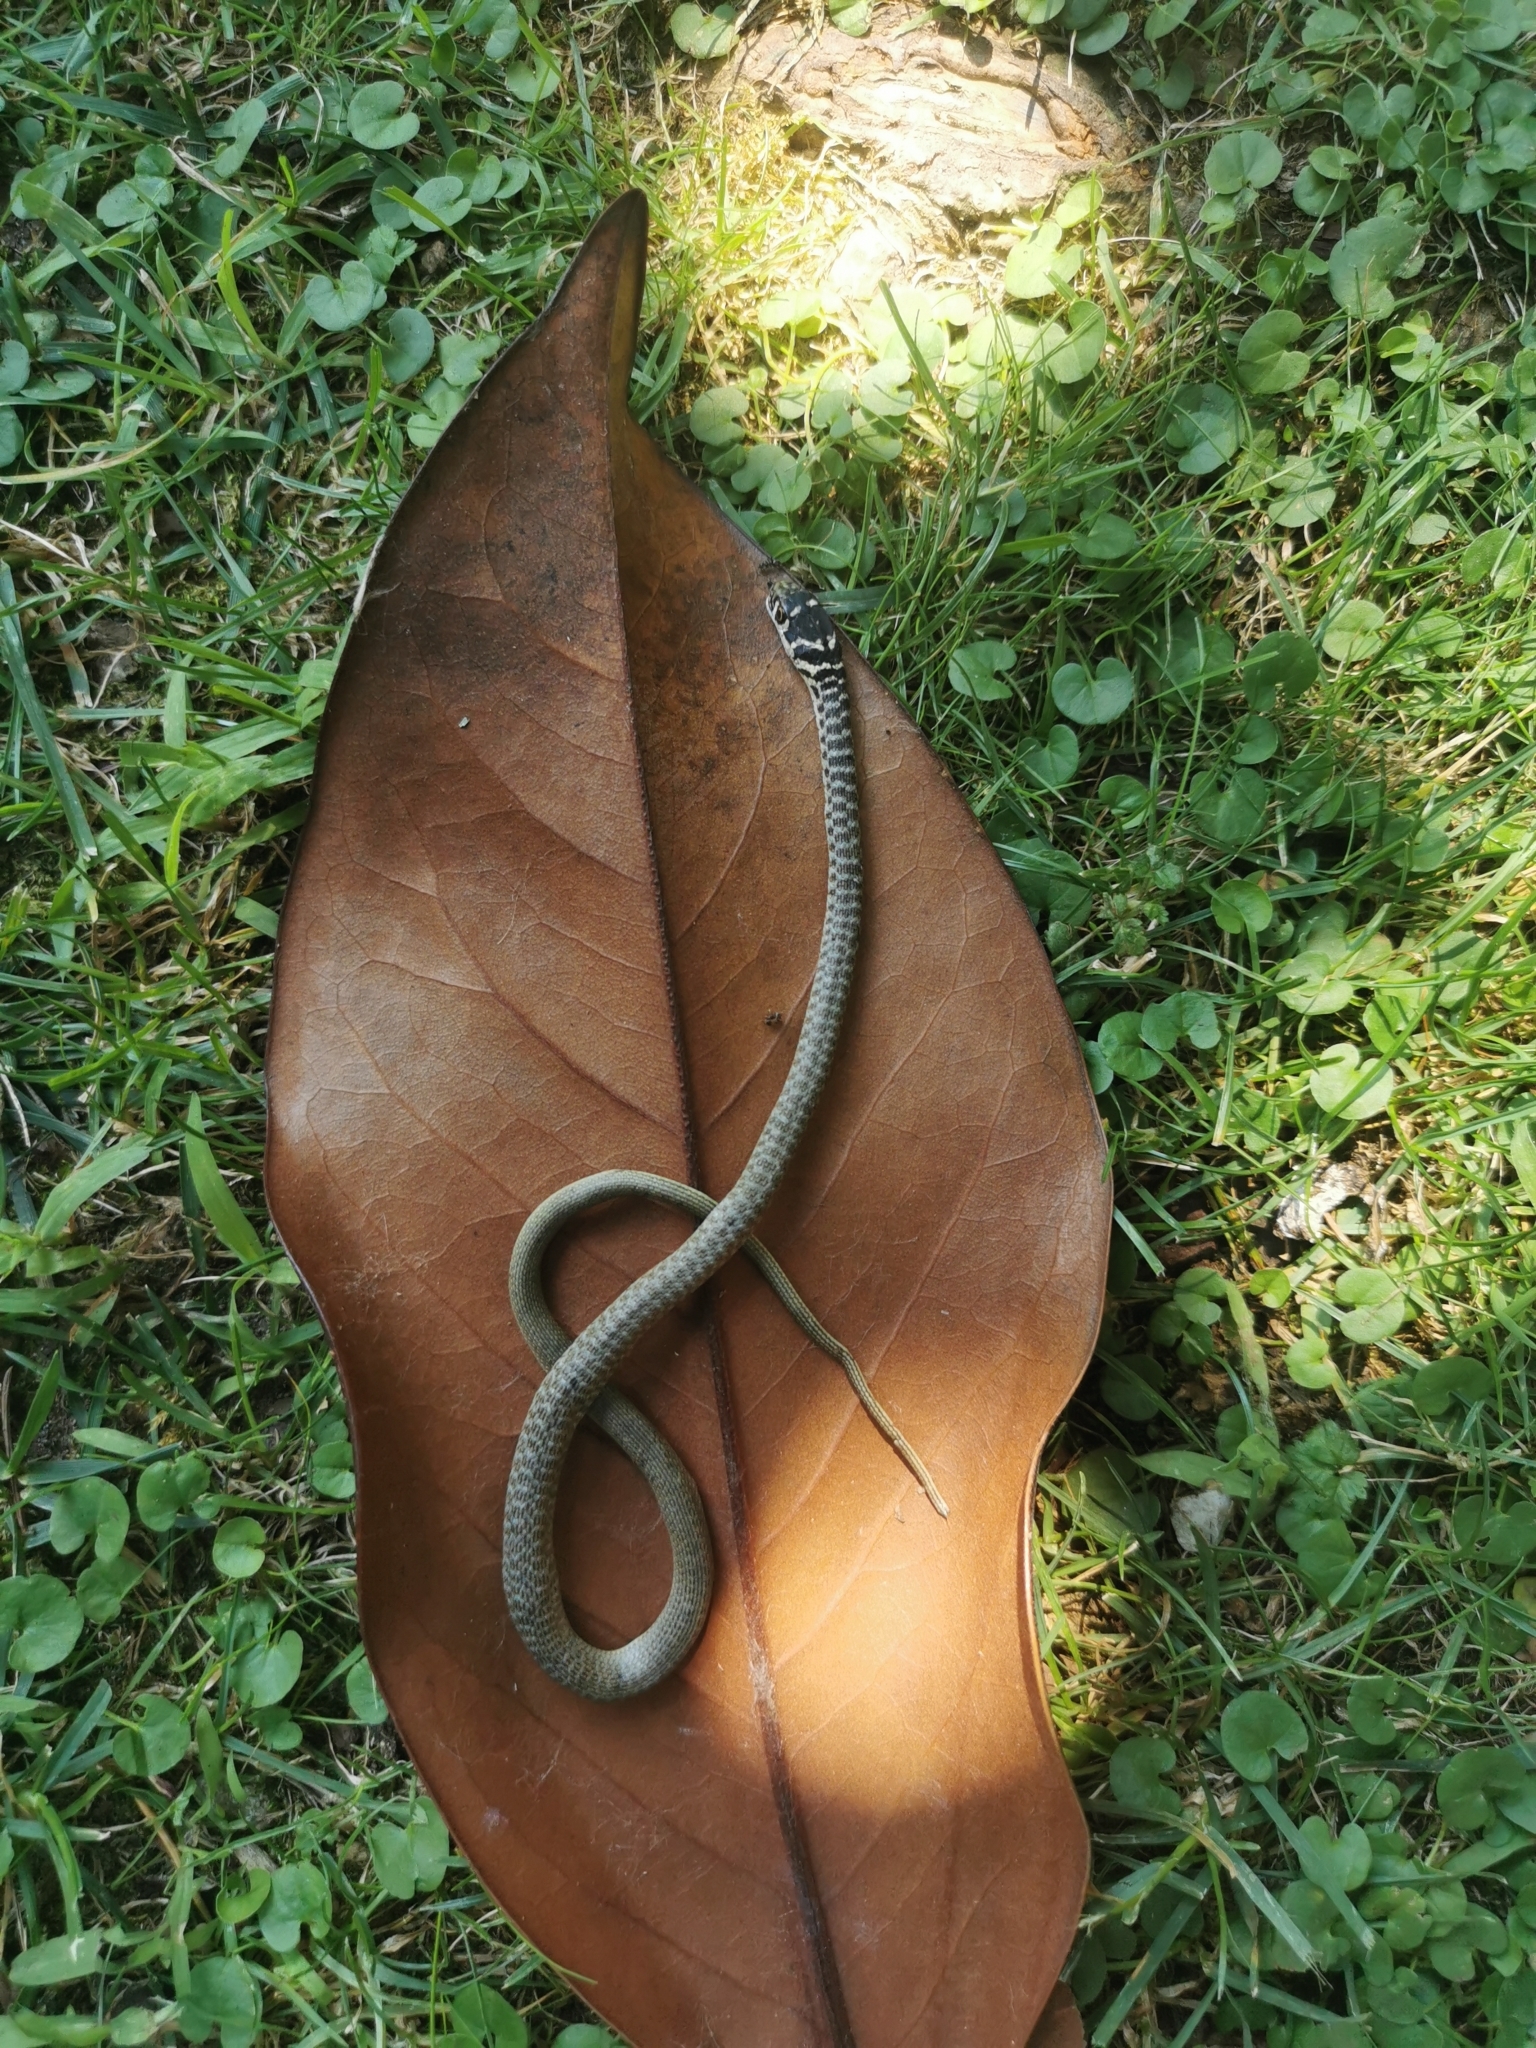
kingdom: Animalia
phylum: Chordata
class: Squamata
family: Colubridae
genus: Hierophis
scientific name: Hierophis viridiflavus
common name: Green whip snake
